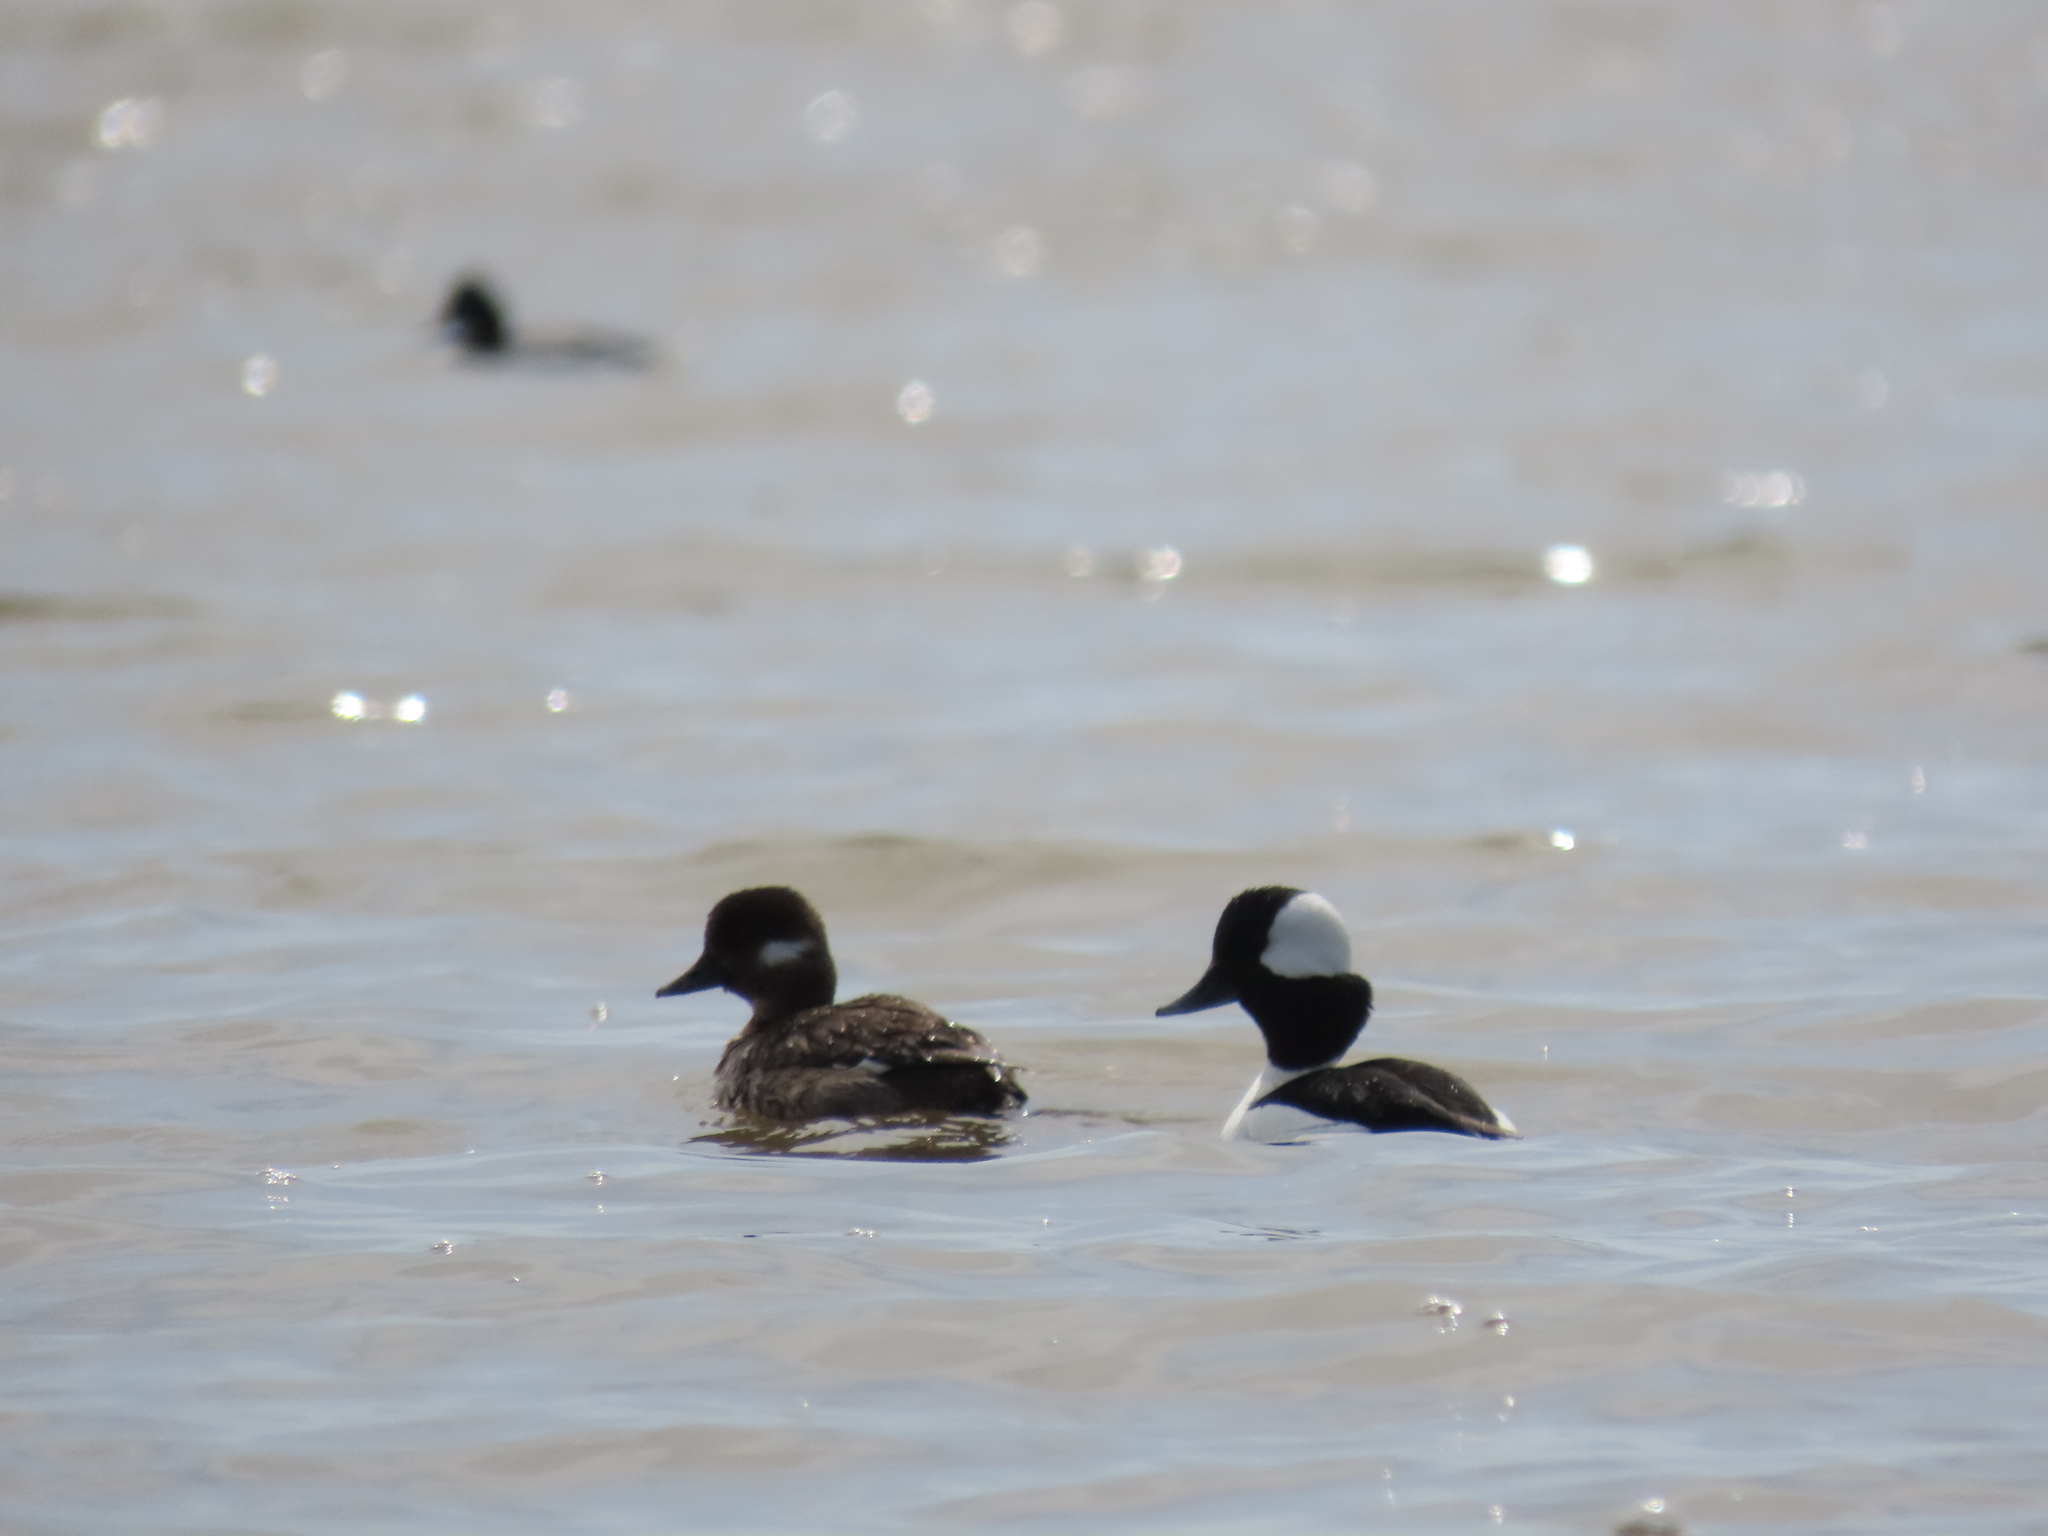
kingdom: Animalia
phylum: Chordata
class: Aves
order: Anseriformes
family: Anatidae
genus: Bucephala
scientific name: Bucephala albeola
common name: Bufflehead
